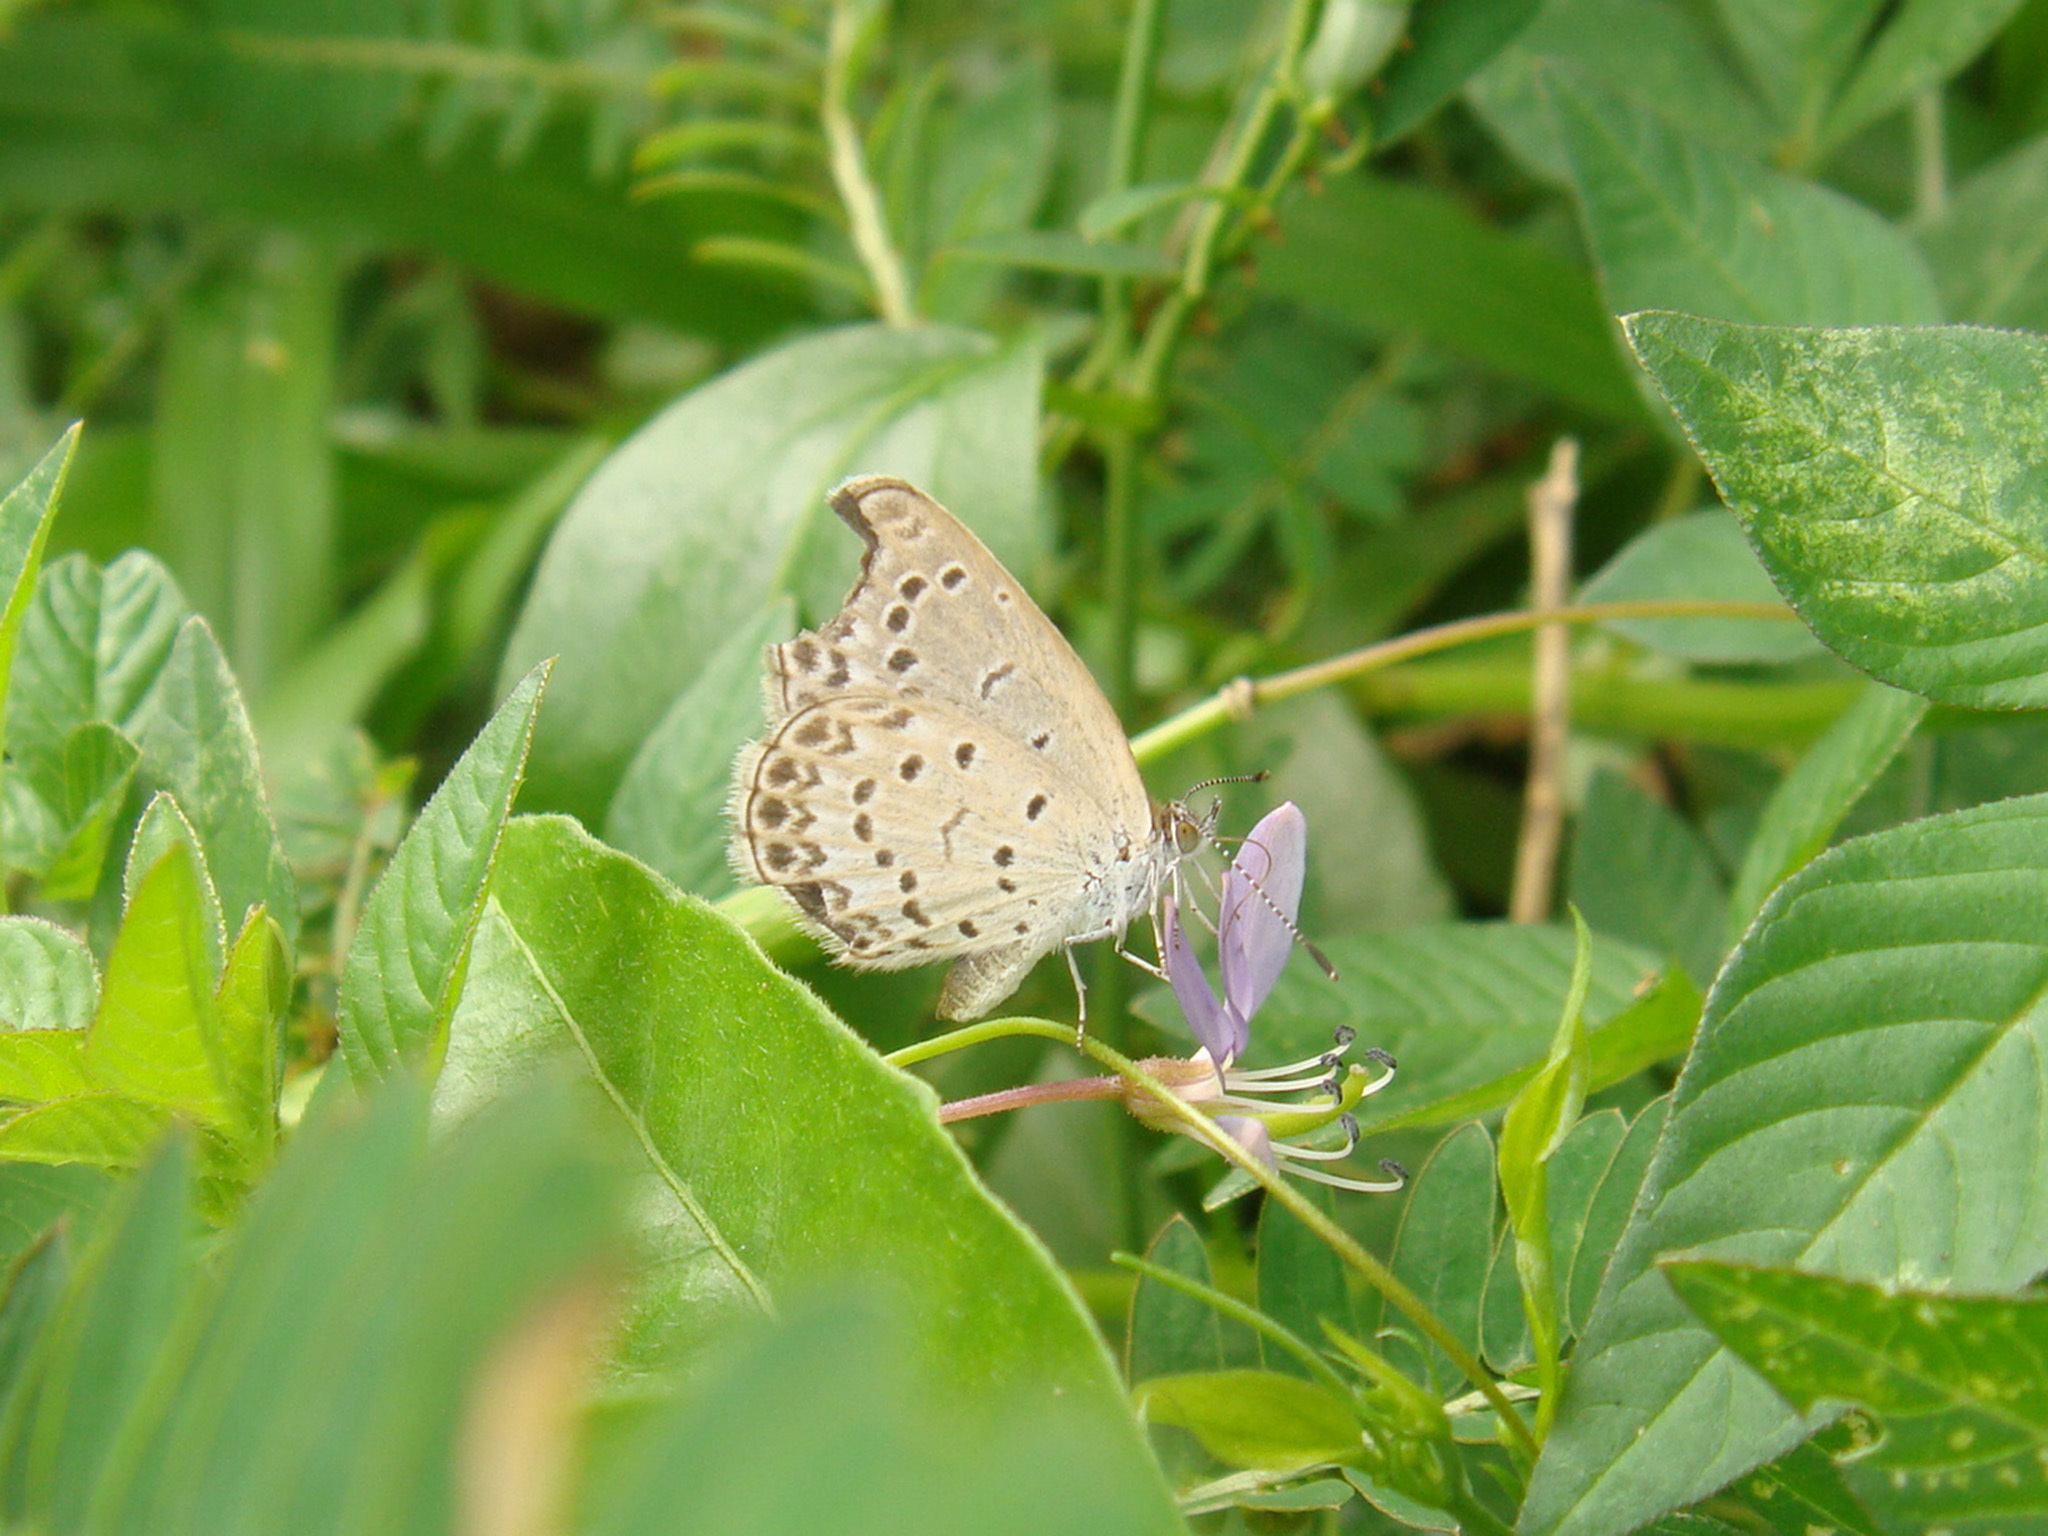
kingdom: Animalia
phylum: Arthropoda
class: Insecta
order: Lepidoptera
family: Lycaenidae
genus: Pseudozizeeria
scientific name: Pseudozizeeria maha
